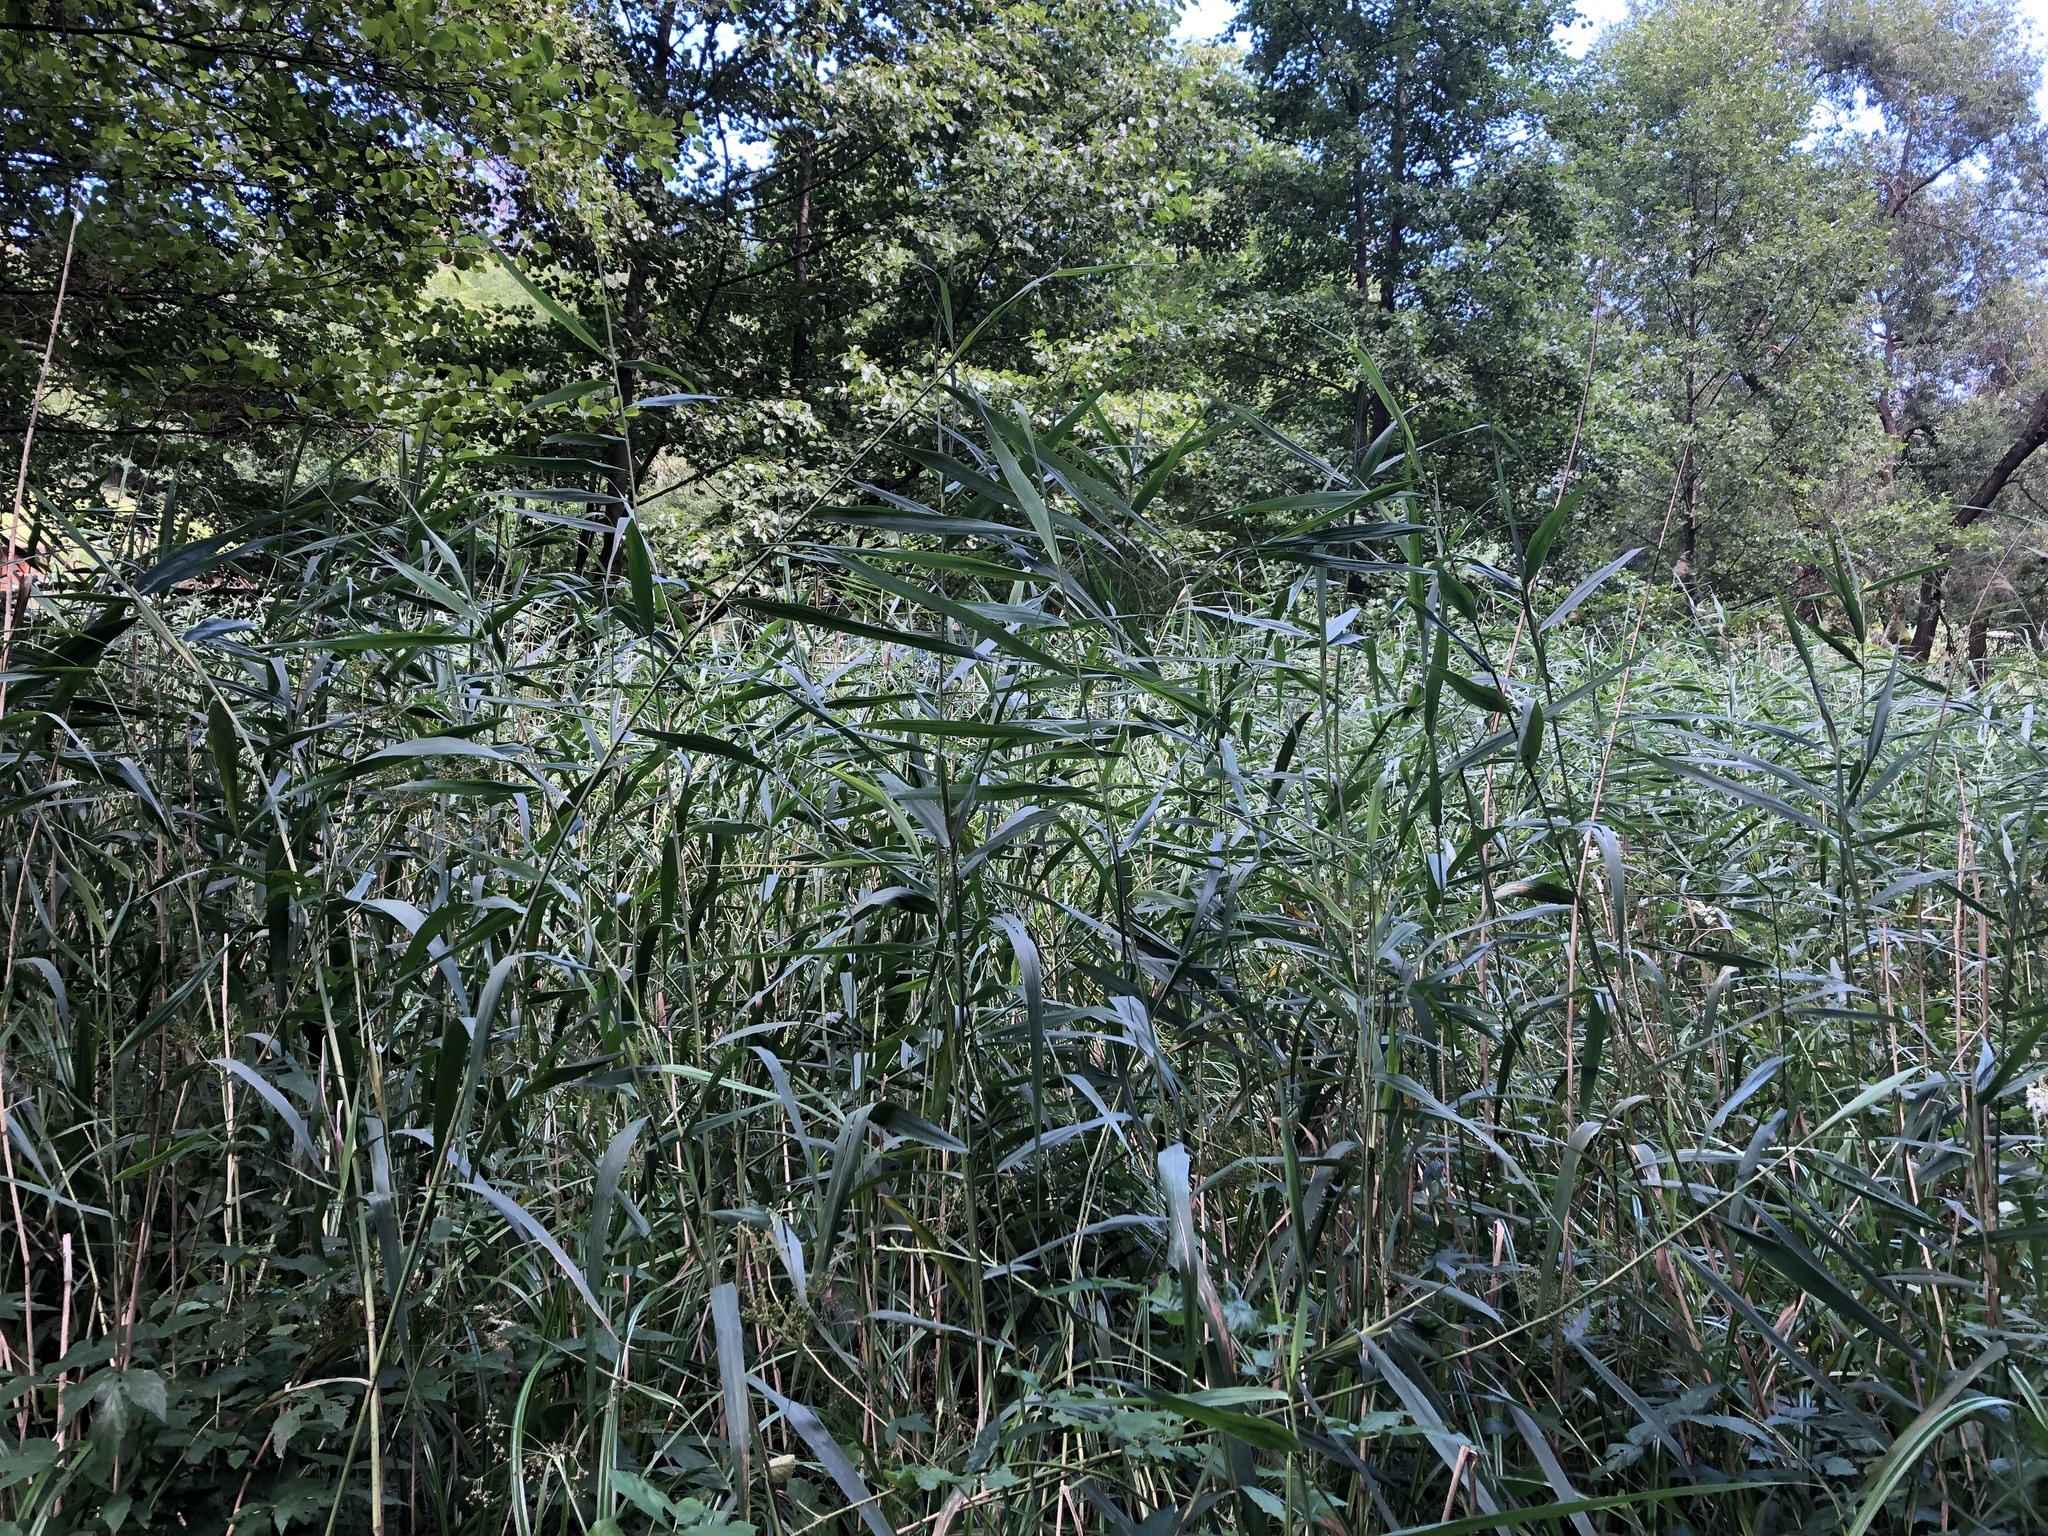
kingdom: Plantae
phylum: Tracheophyta
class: Liliopsida
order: Poales
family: Poaceae
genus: Phragmites
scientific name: Phragmites australis
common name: Common reed
